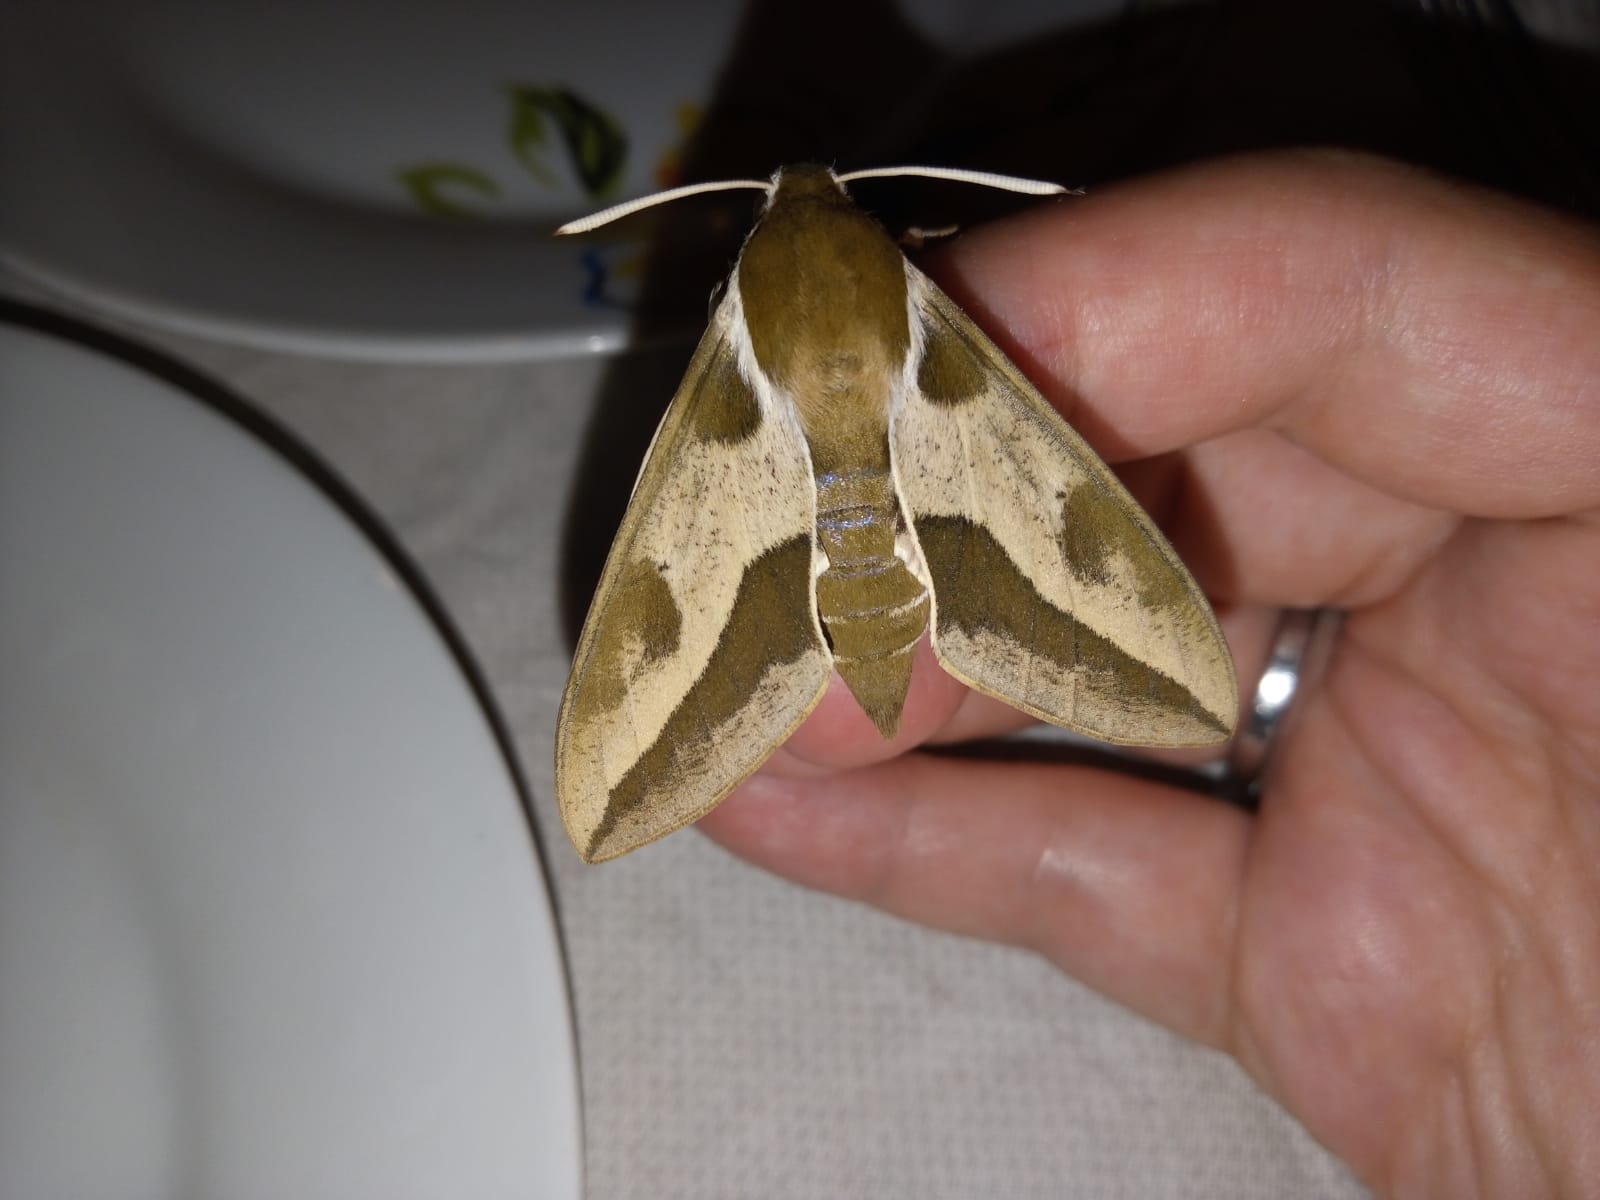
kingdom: Animalia
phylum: Arthropoda
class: Insecta
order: Lepidoptera
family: Sphingidae
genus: Hyles
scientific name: Hyles euphorbiae
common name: Spurge hawk-moth
